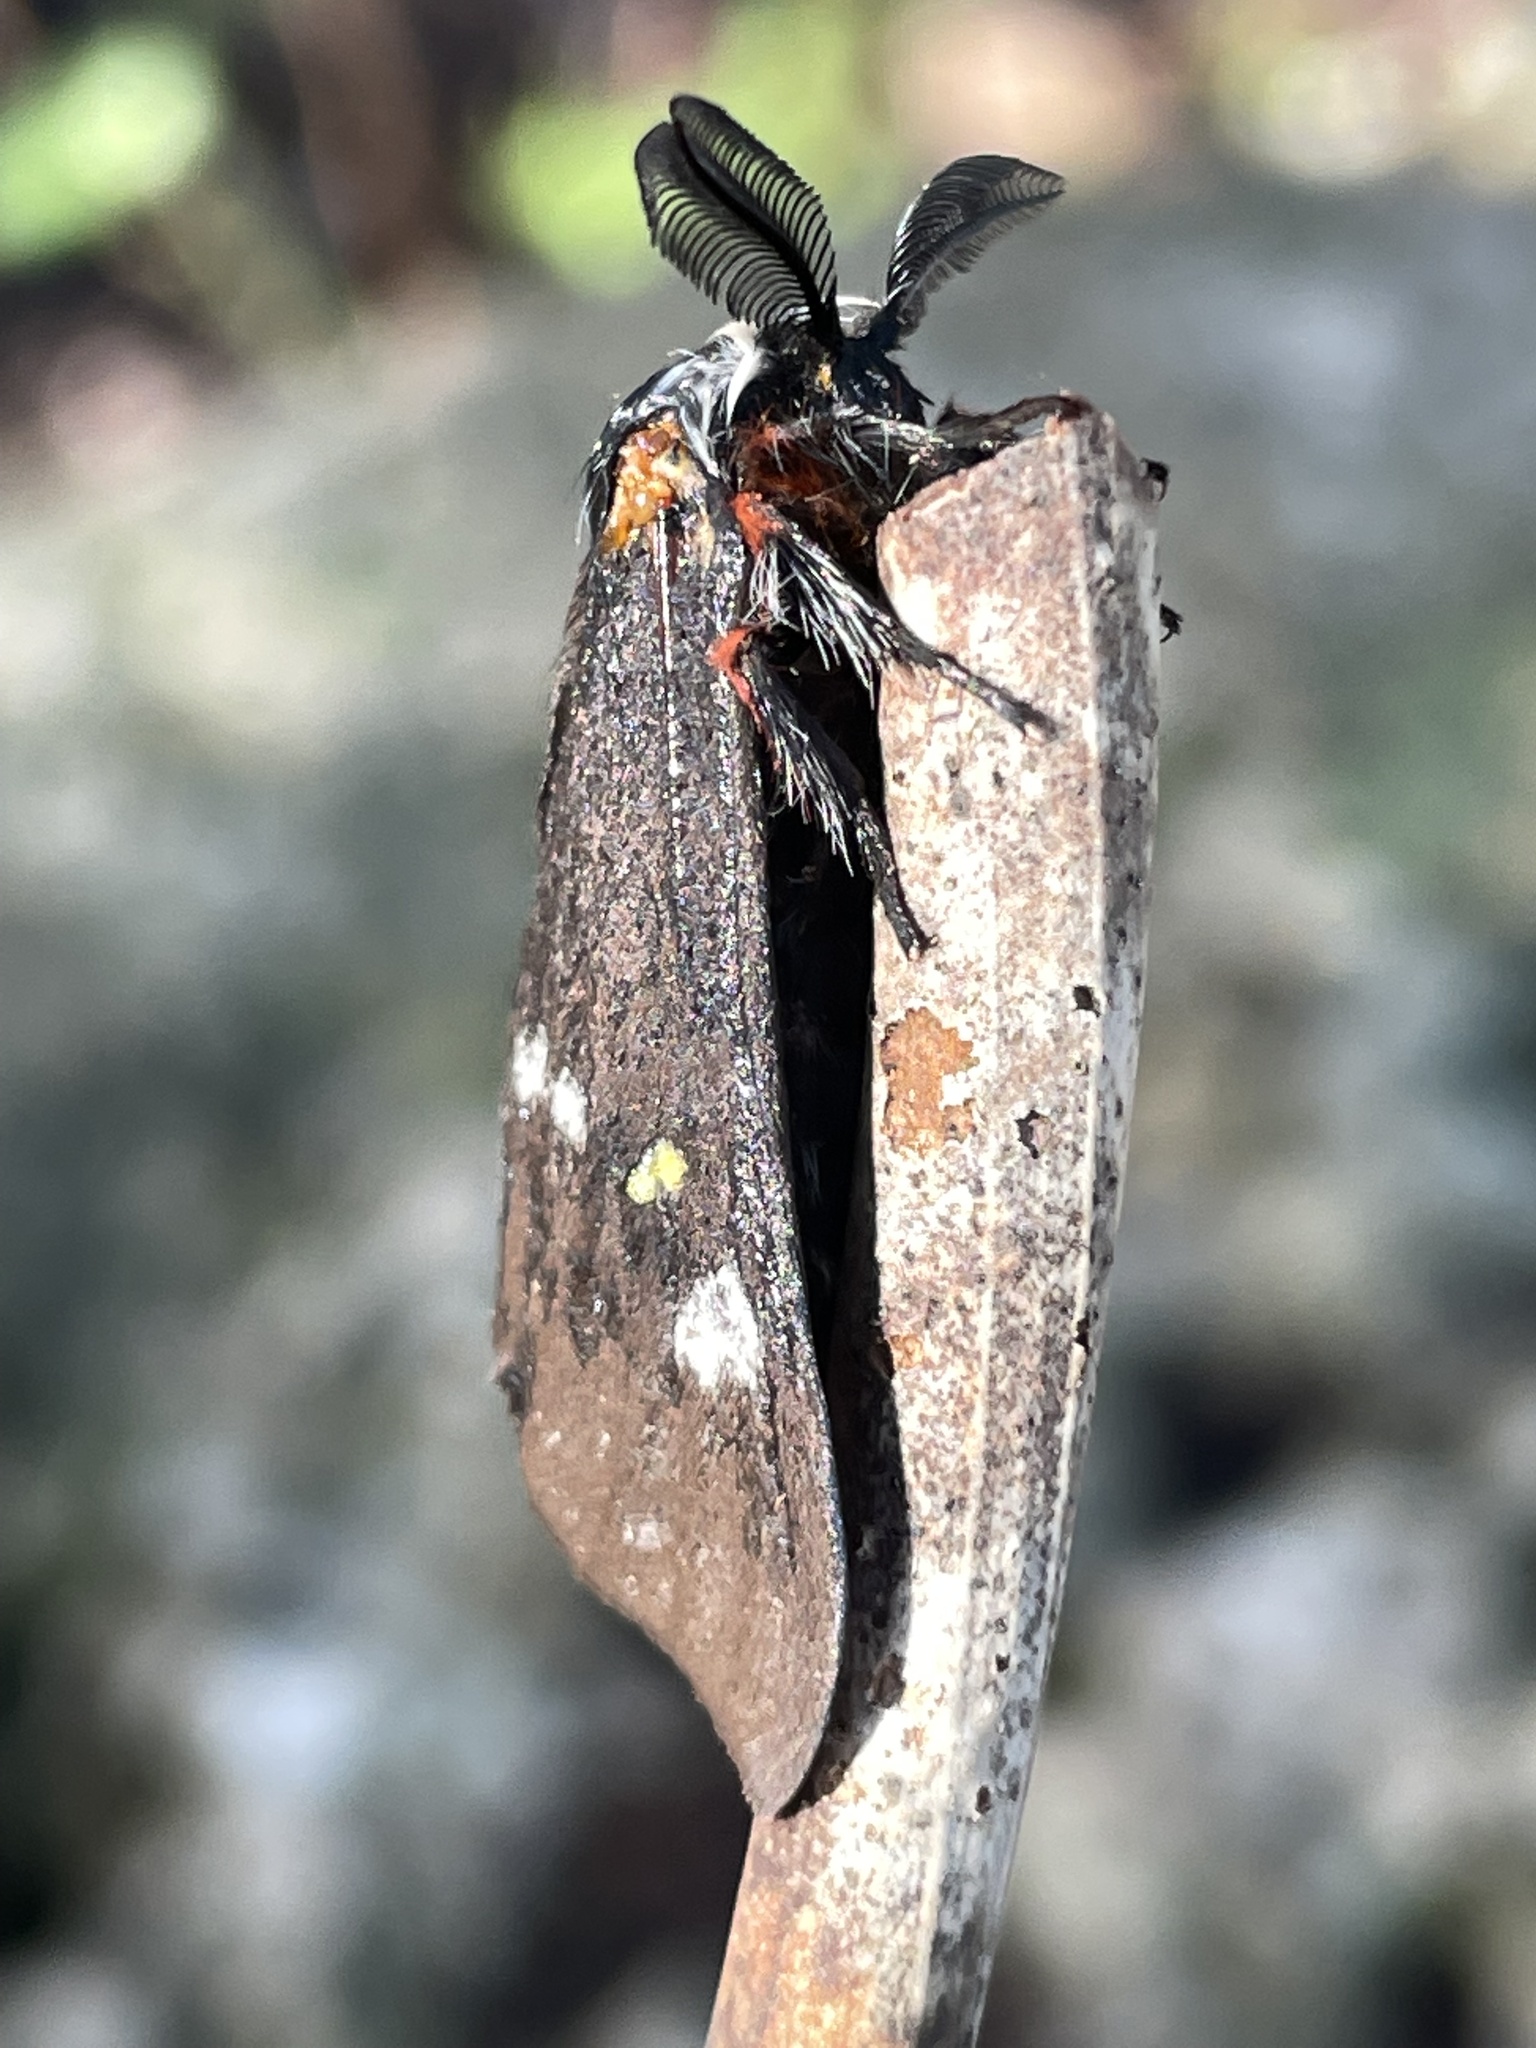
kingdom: Animalia
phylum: Arthropoda
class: Insecta
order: Lepidoptera
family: Saturniidae
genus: Hemileuca
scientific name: Hemileuca grotei
